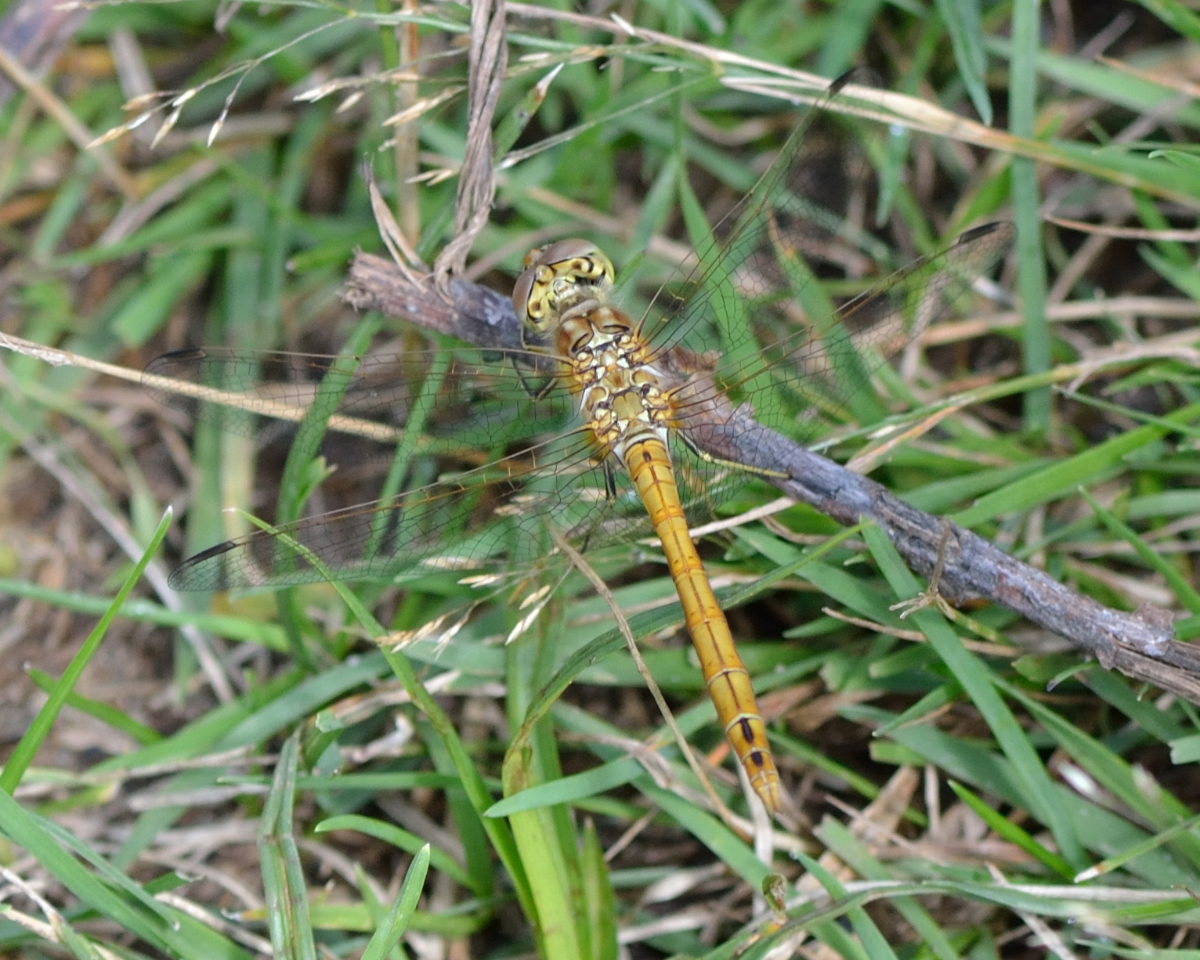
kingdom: Animalia
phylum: Arthropoda
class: Insecta
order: Odonata
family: Libellulidae
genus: Sympetrum
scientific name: Sympetrum vulgatum
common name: Vagrant darter
